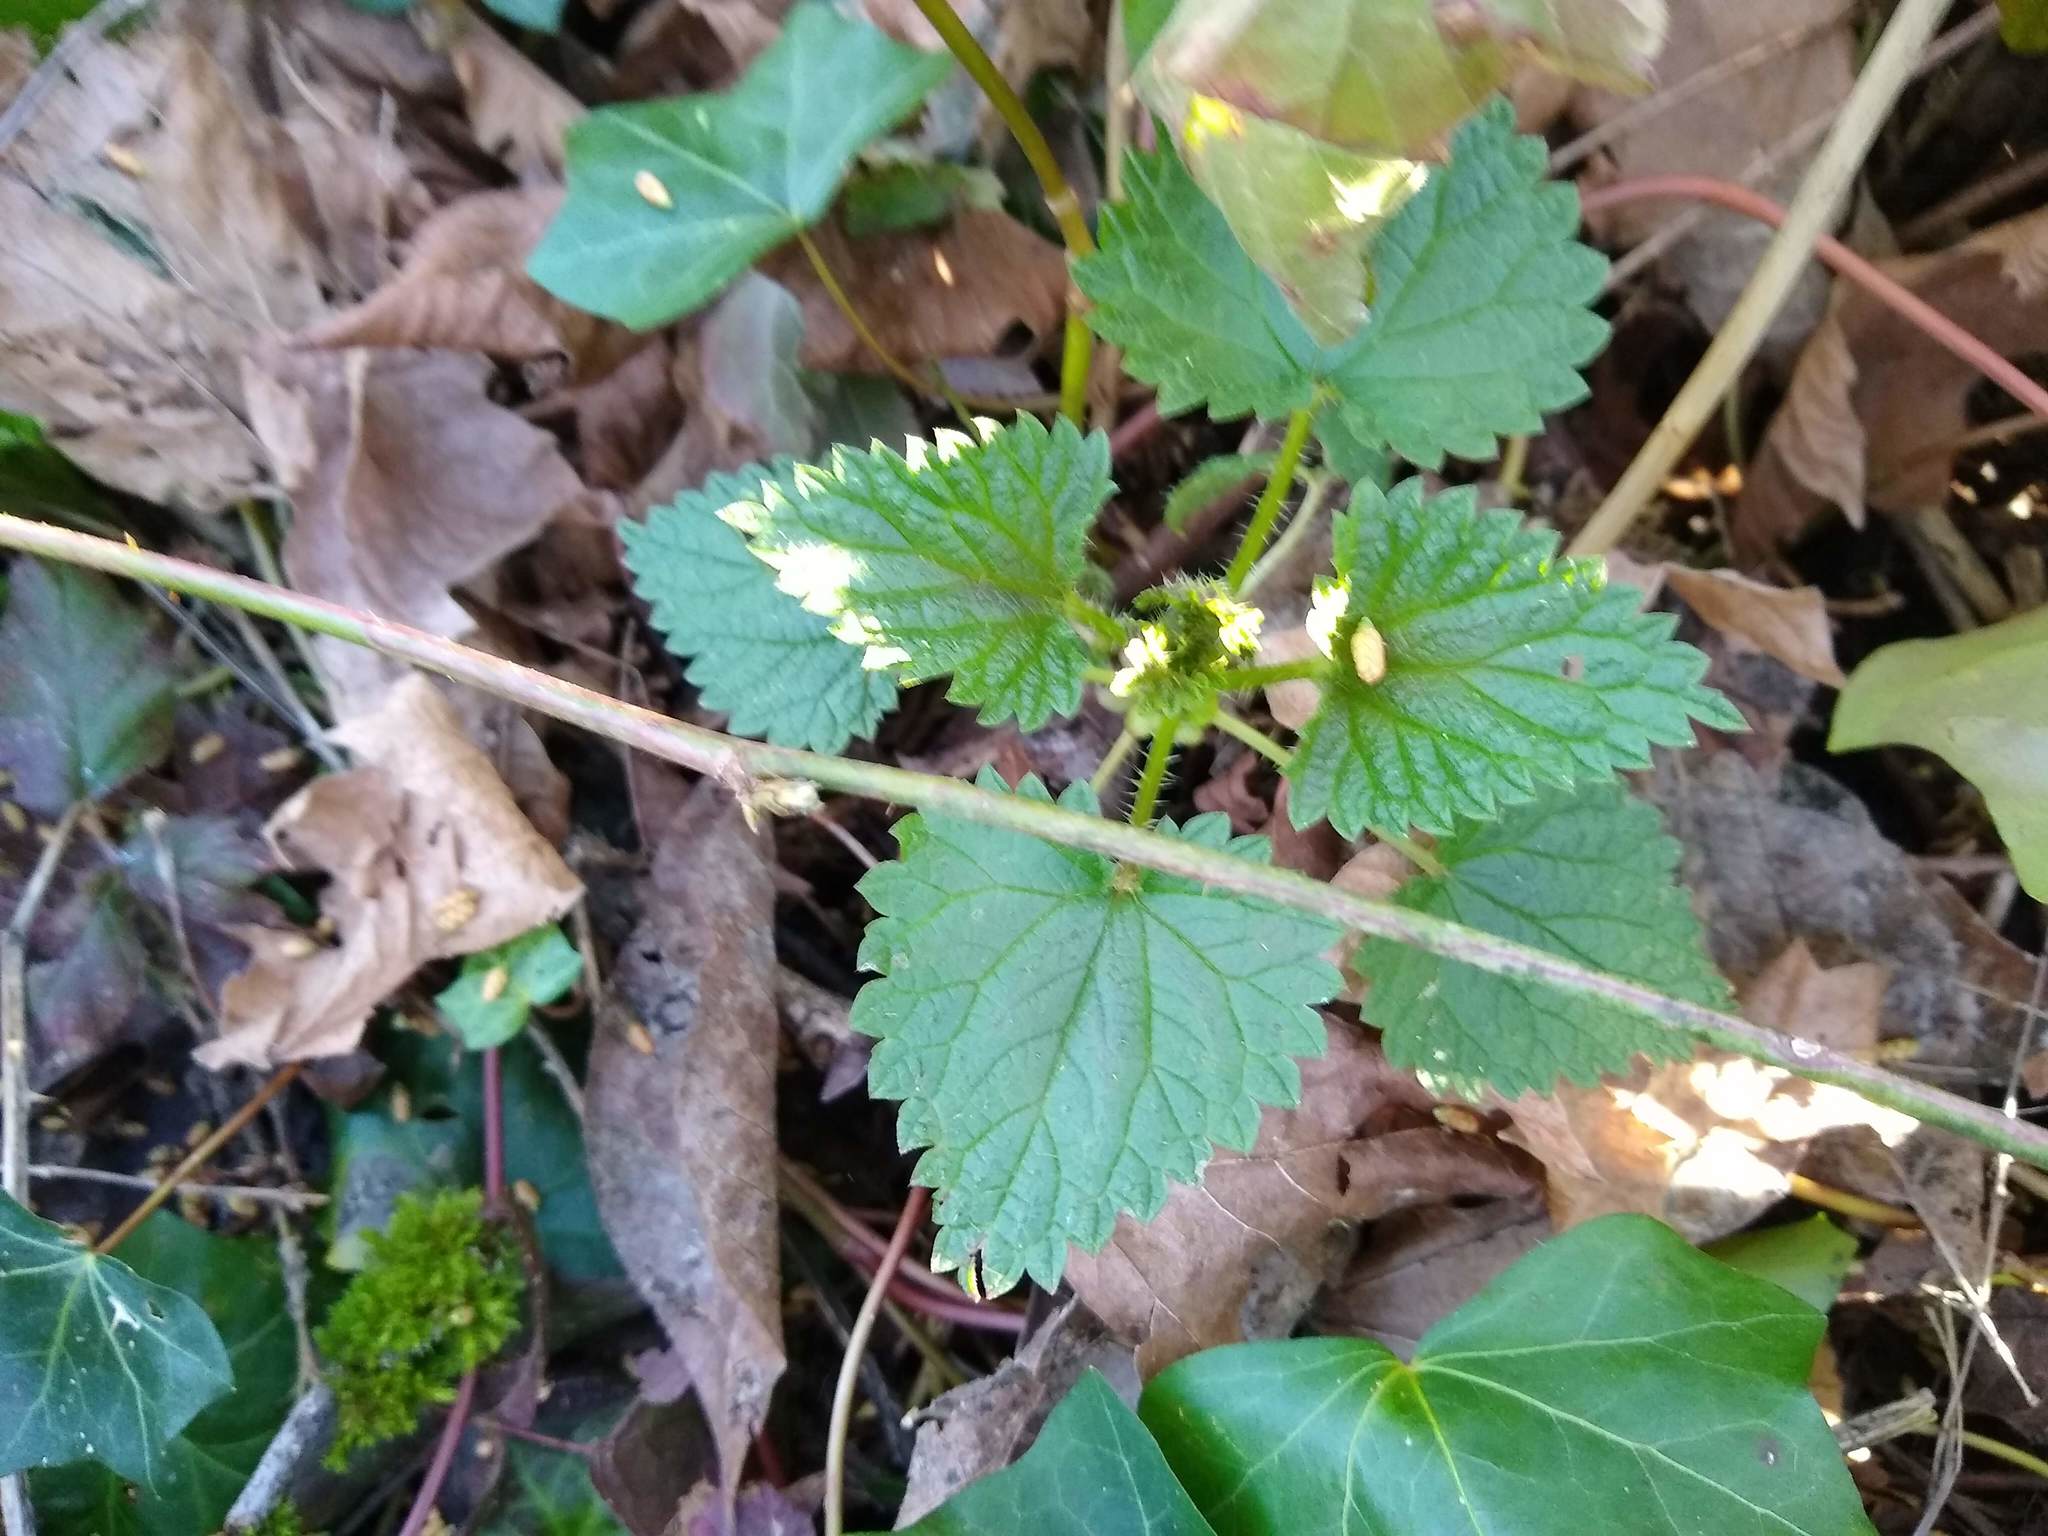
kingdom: Plantae
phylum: Tracheophyta
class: Magnoliopsida
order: Rosales
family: Urticaceae
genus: Urtica
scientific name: Urtica dioica
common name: Common nettle
